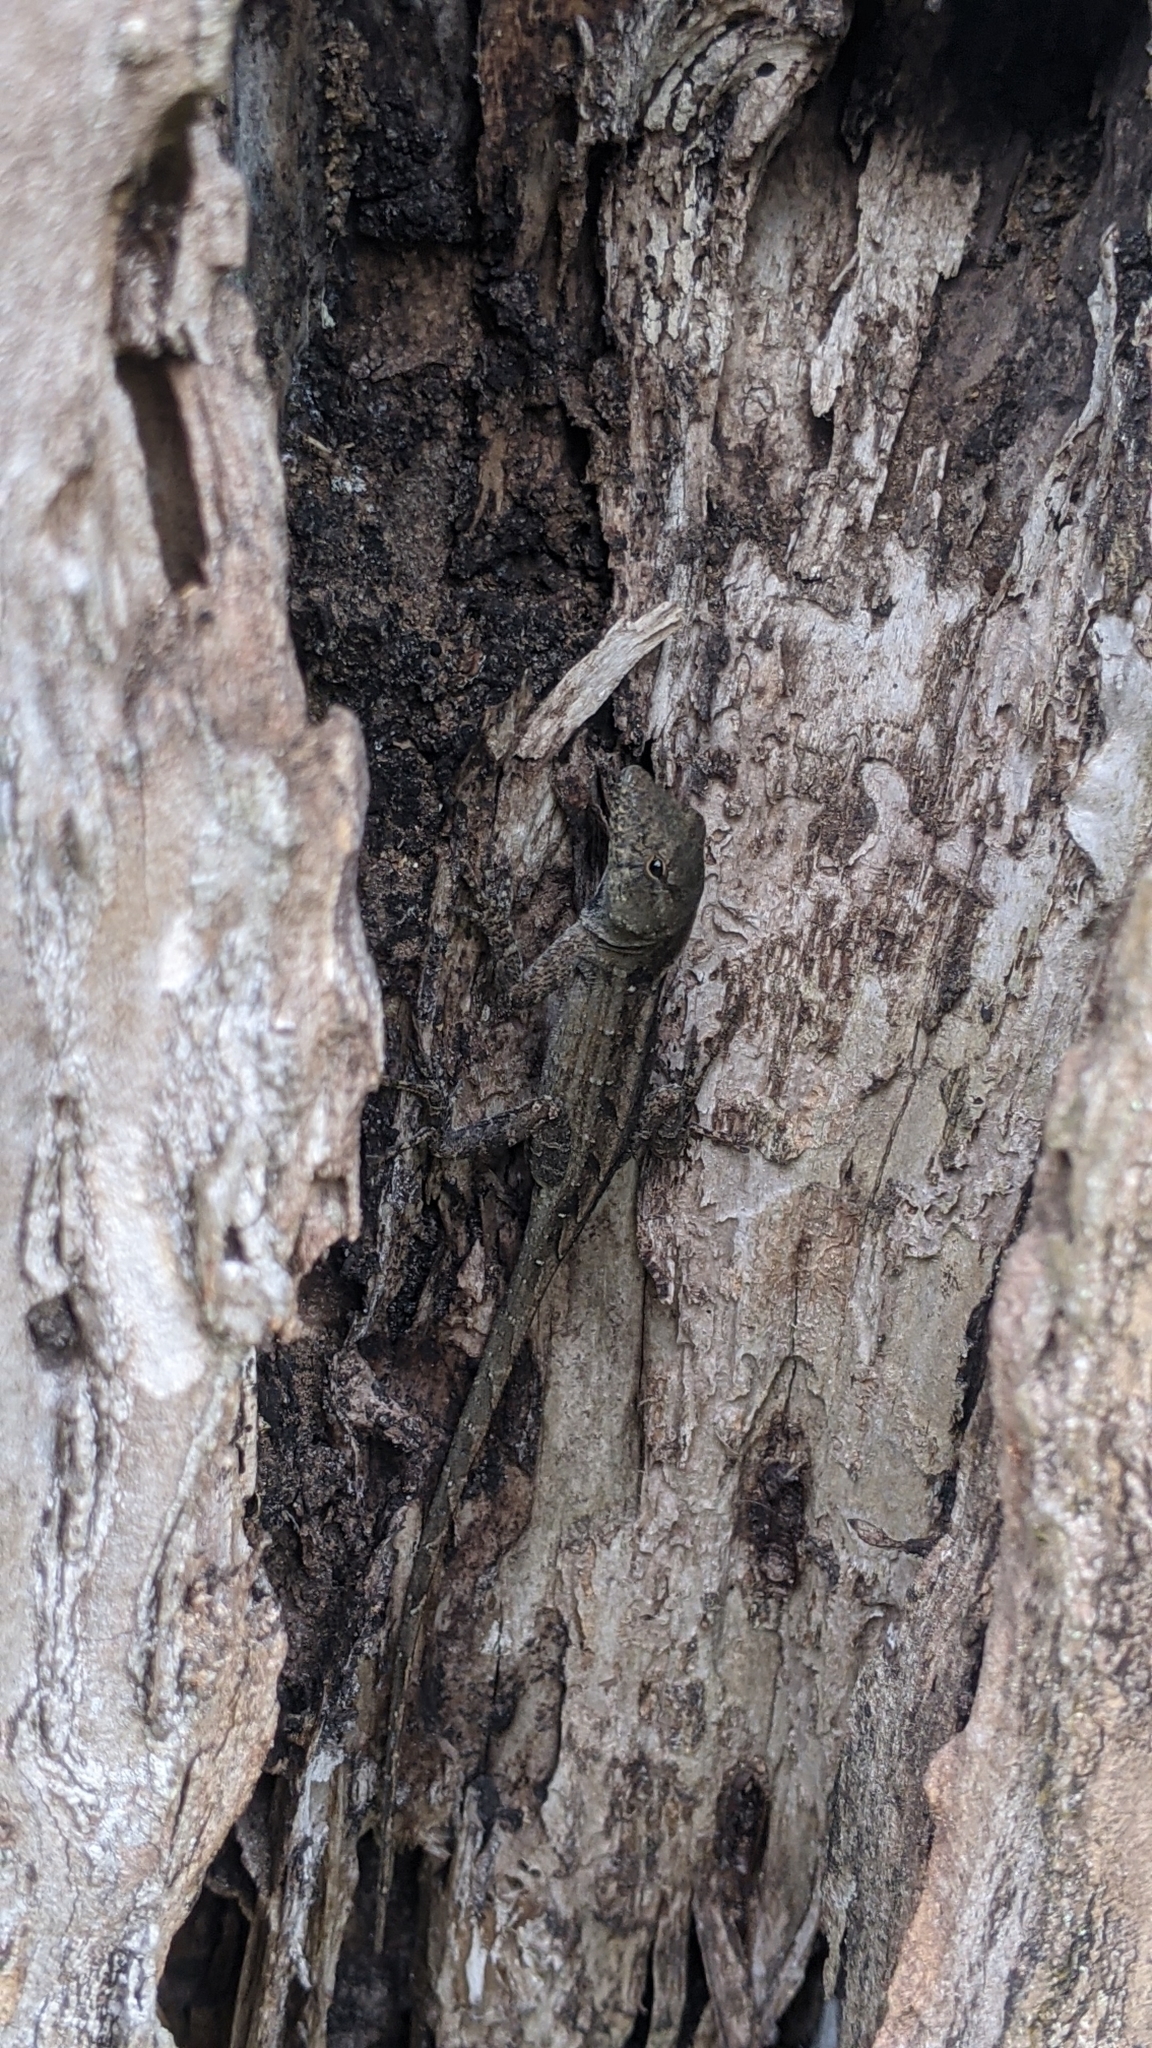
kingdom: Animalia
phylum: Chordata
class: Squamata
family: Dactyloidae
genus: Anolis
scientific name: Anolis sagrei
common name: Brown anole
